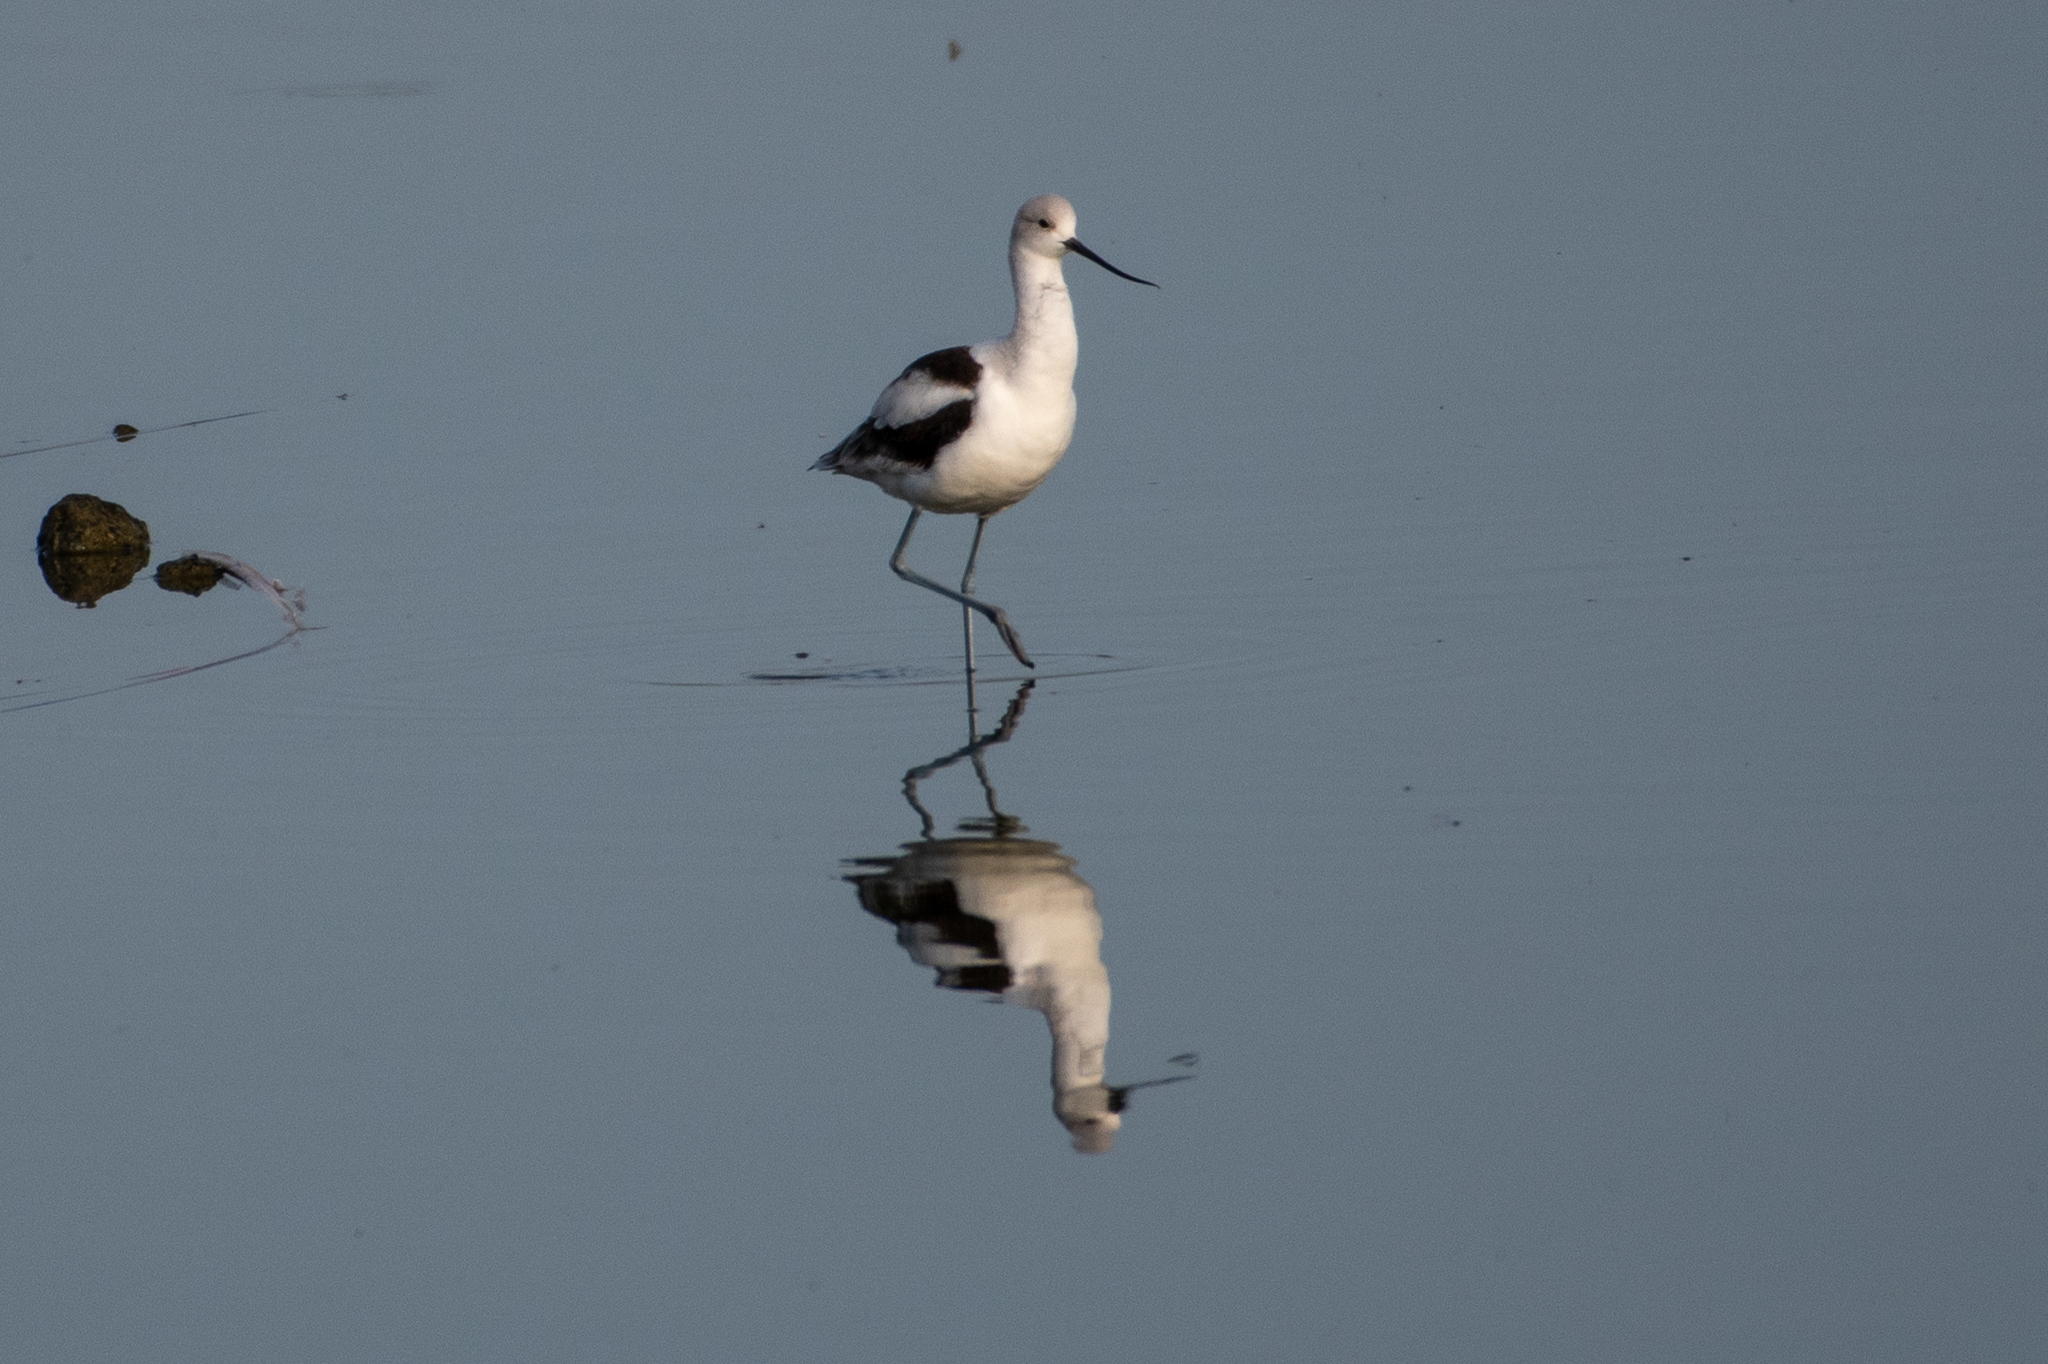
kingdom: Animalia
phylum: Chordata
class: Aves
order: Charadriiformes
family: Recurvirostridae
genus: Recurvirostra
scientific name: Recurvirostra americana
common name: American avocet
